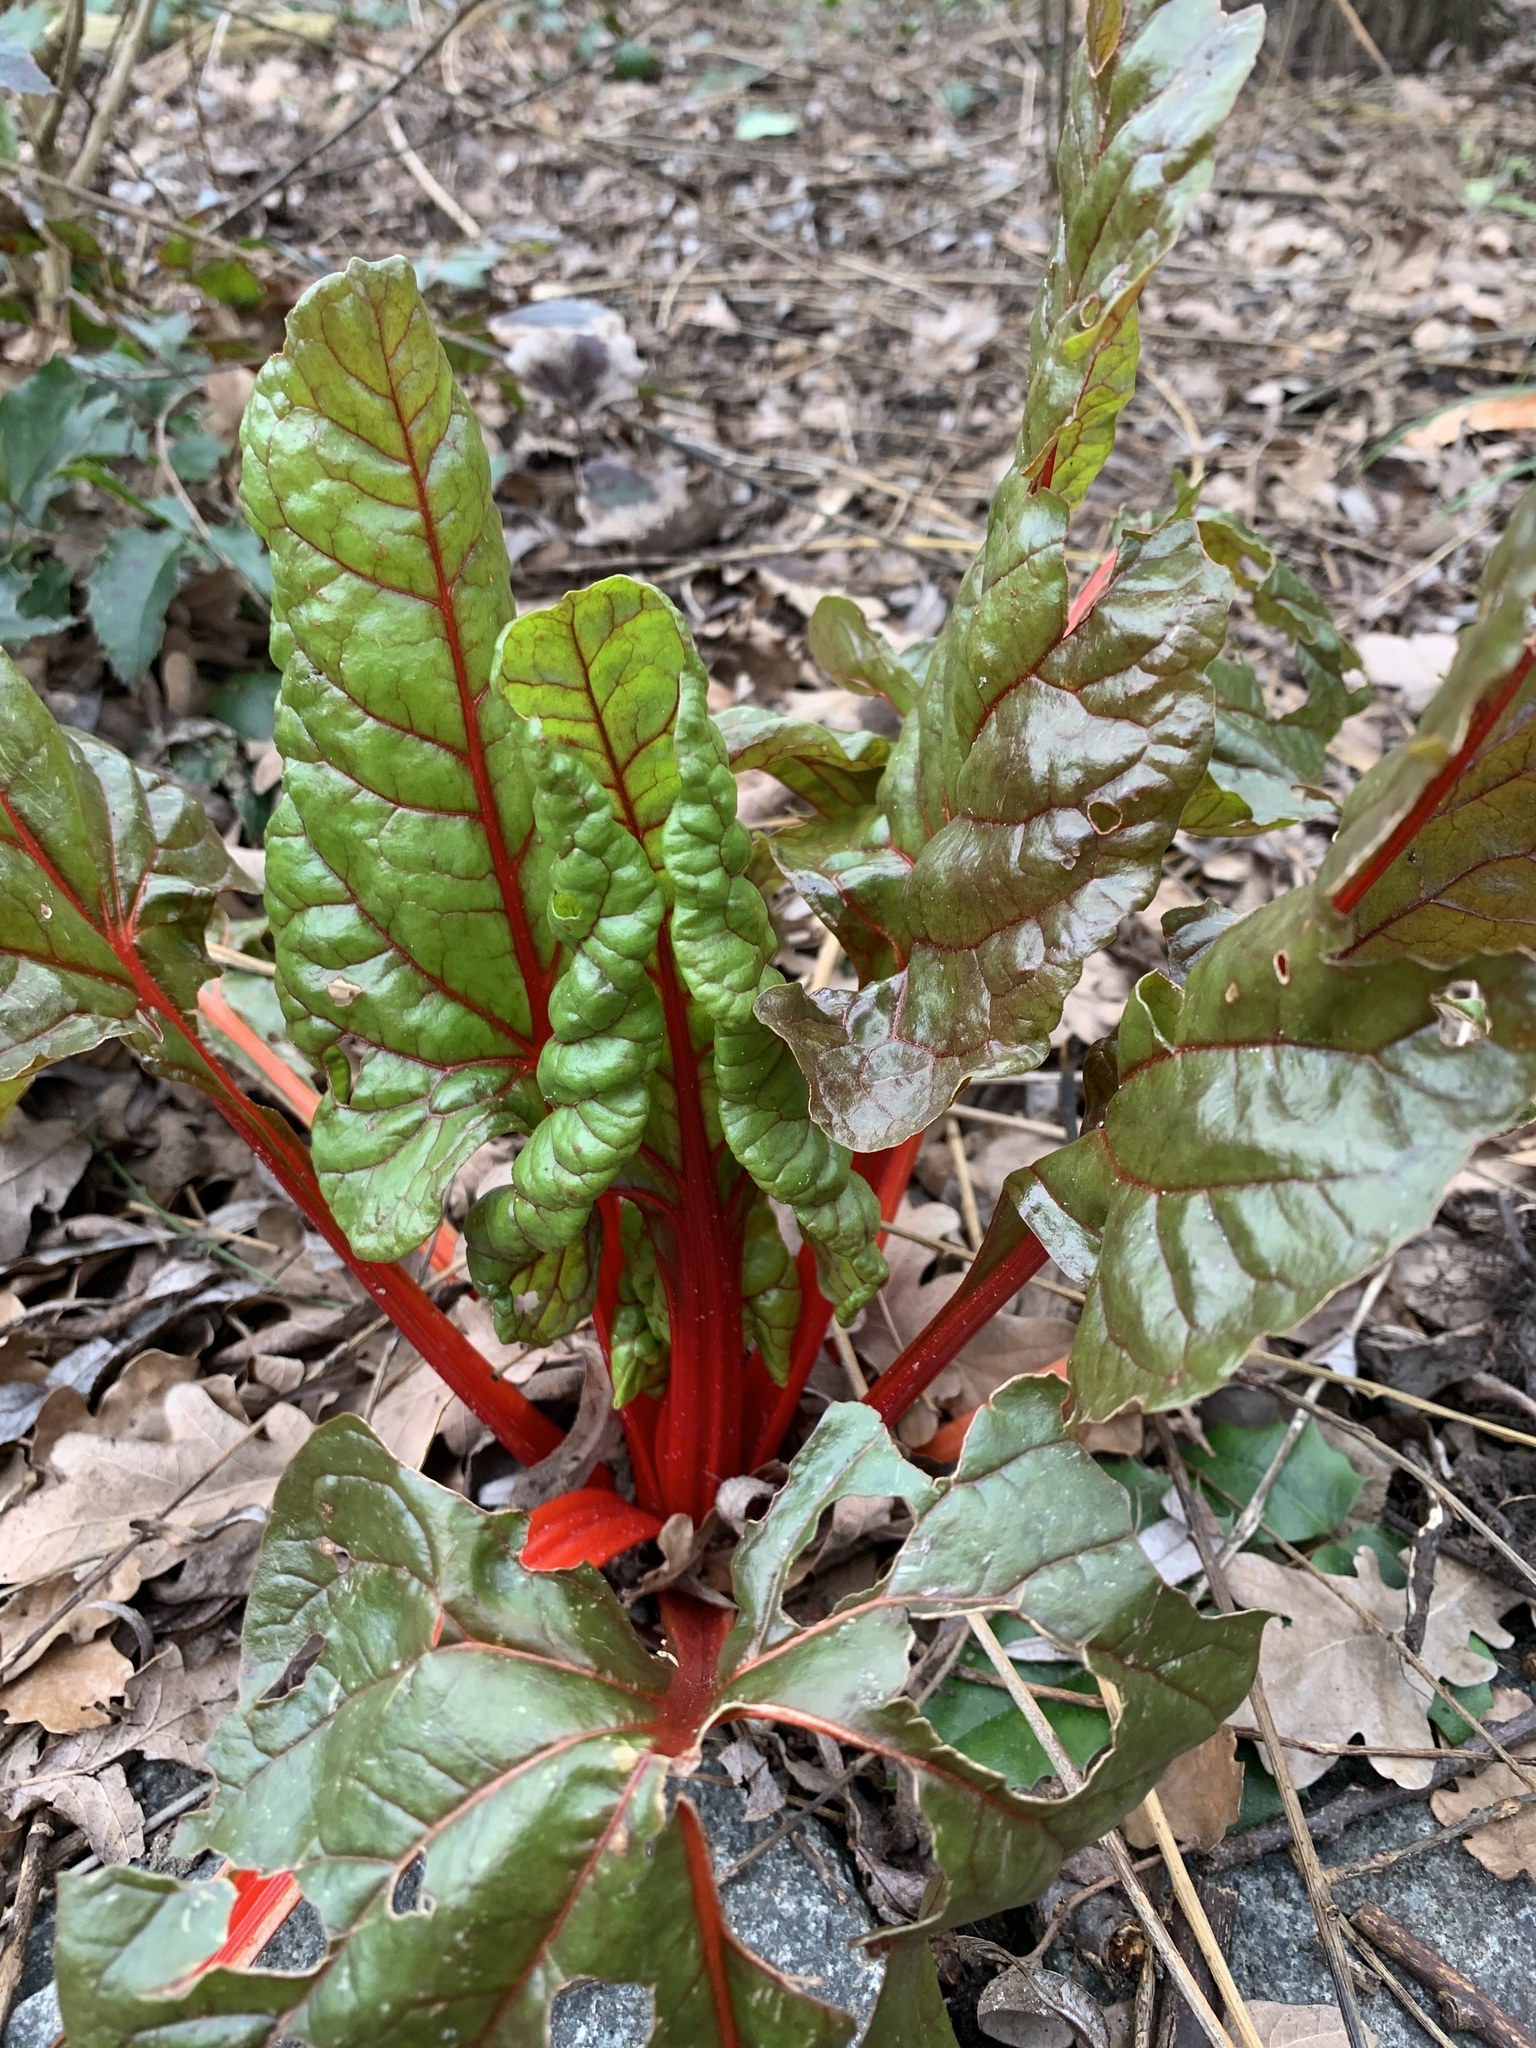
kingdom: Plantae
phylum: Tracheophyta
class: Magnoliopsida
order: Caryophyllales
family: Amaranthaceae
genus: Beta
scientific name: Beta vulgaris
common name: Beet
